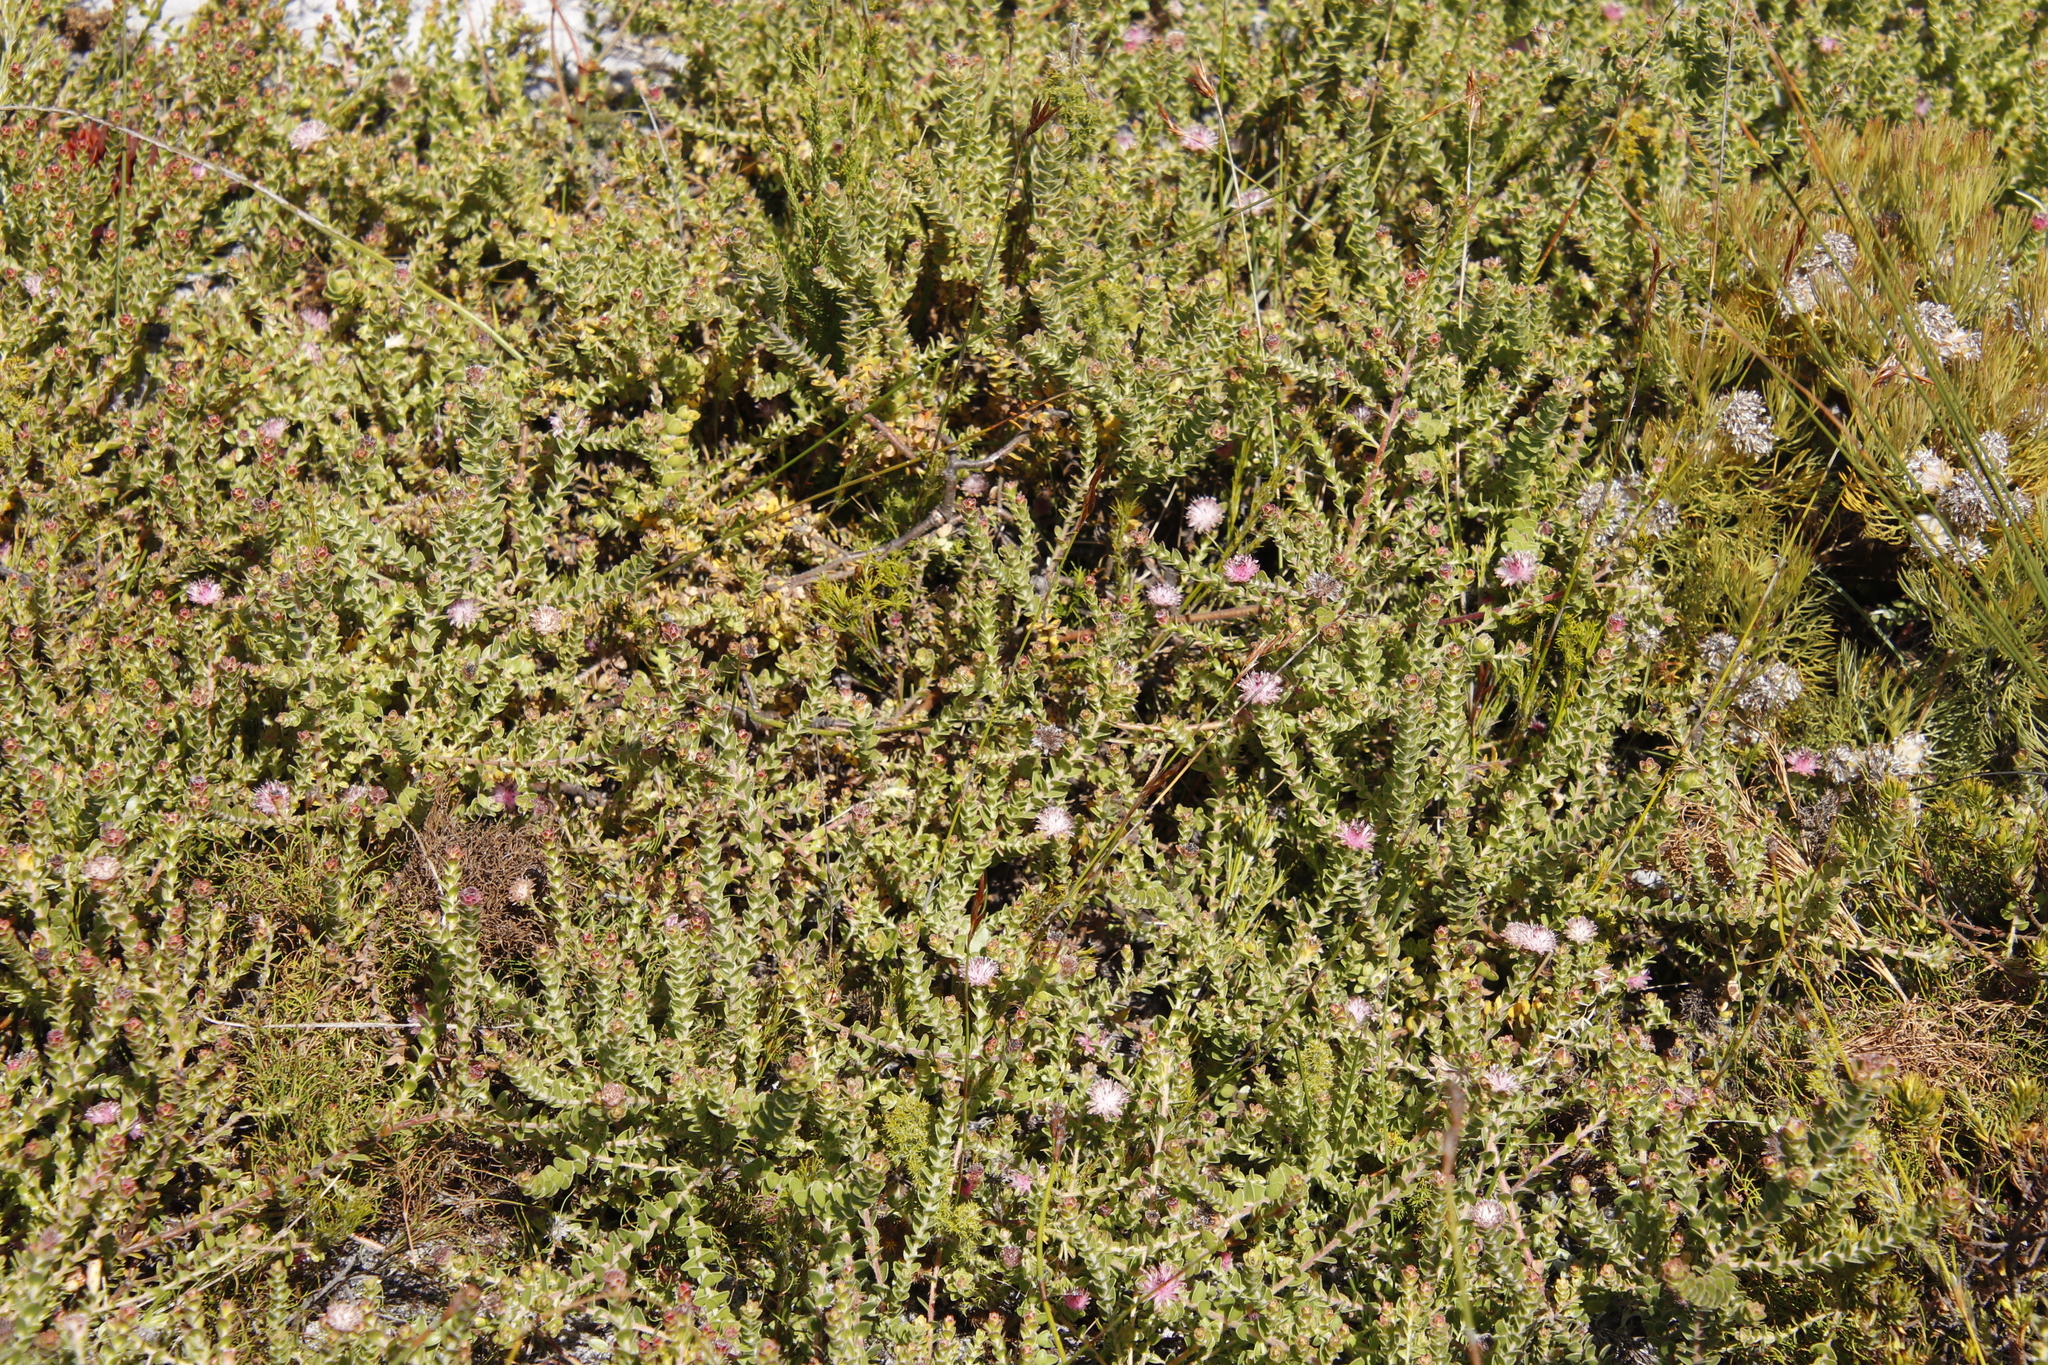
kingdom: Plantae
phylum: Tracheophyta
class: Magnoliopsida
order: Proteales
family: Proteaceae
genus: Diastella
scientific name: Diastella divaricata
